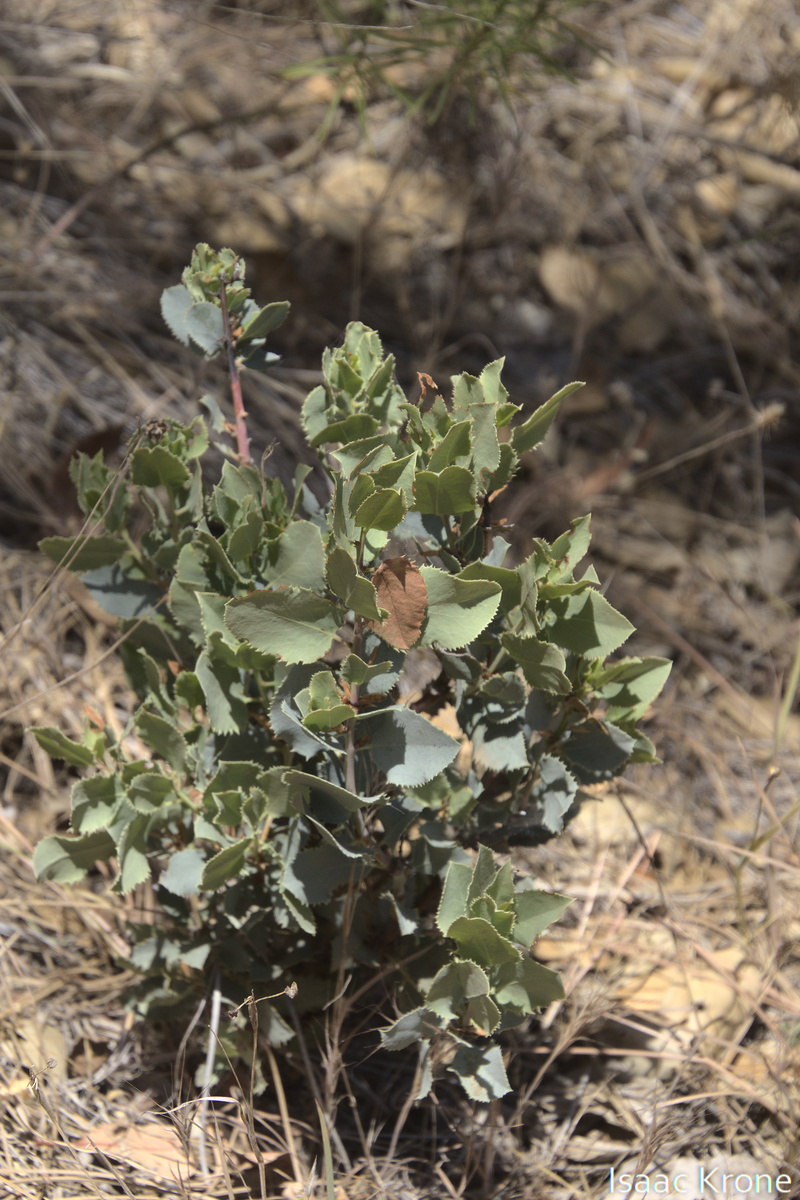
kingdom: Plantae
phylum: Tracheophyta
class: Magnoliopsida
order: Ericales
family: Ericaceae
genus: Arctostaphylos
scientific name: Arctostaphylos glauca
